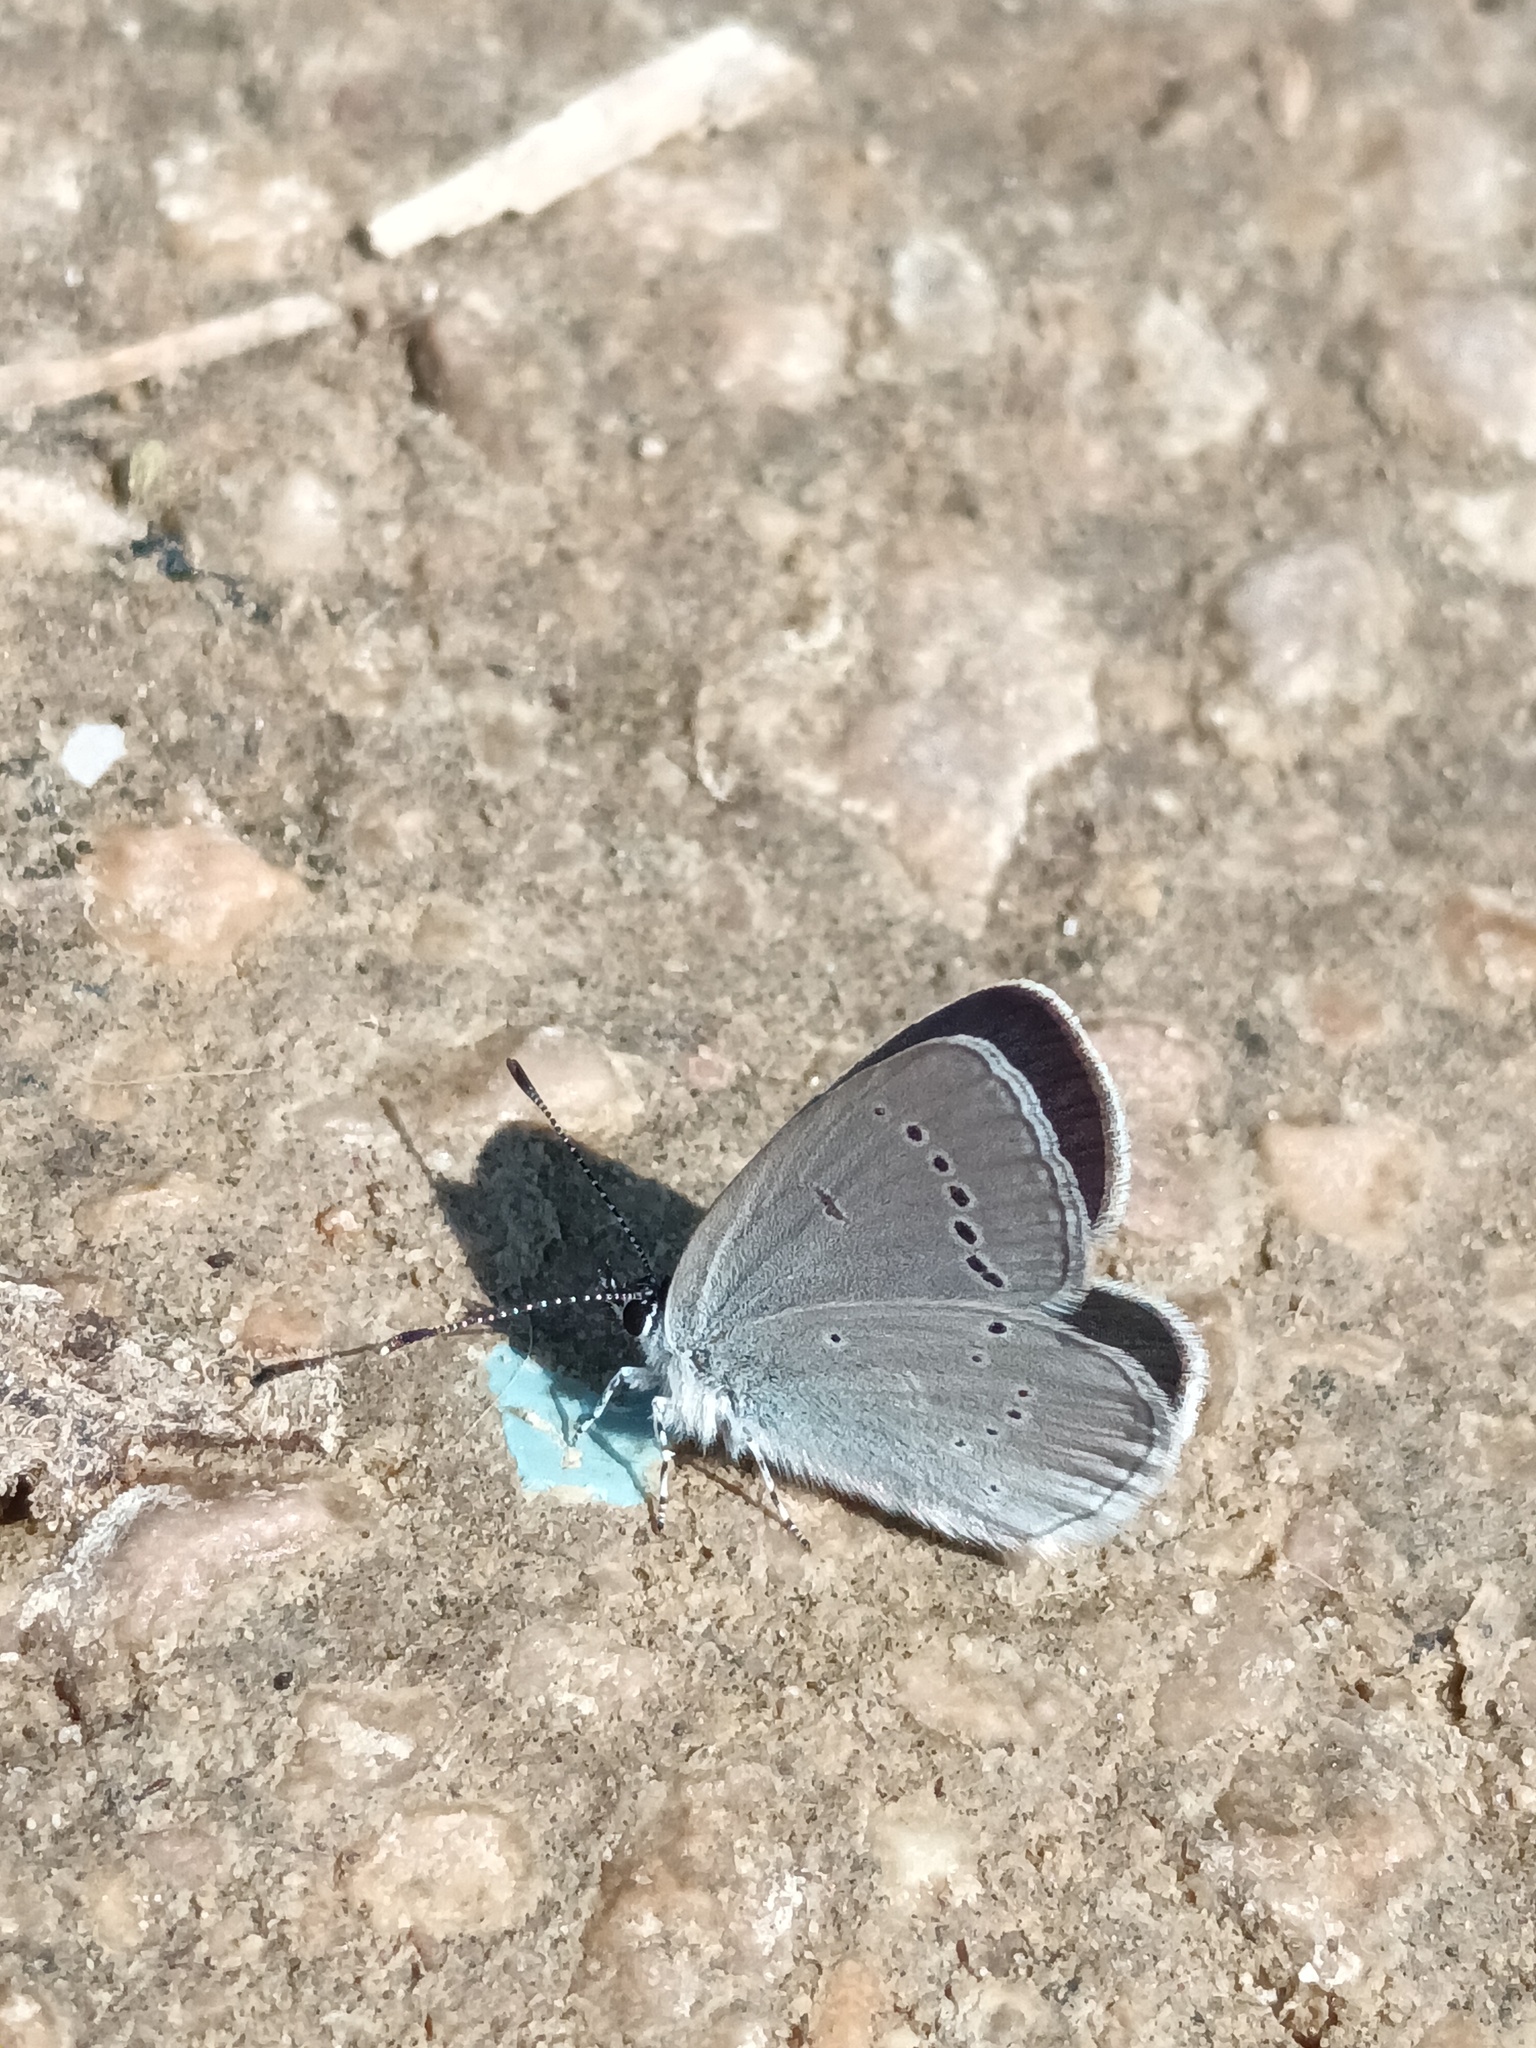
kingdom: Animalia
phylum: Arthropoda
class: Insecta
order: Lepidoptera
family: Lycaenidae
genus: Cupido
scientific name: Cupido minimus
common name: Small blue
